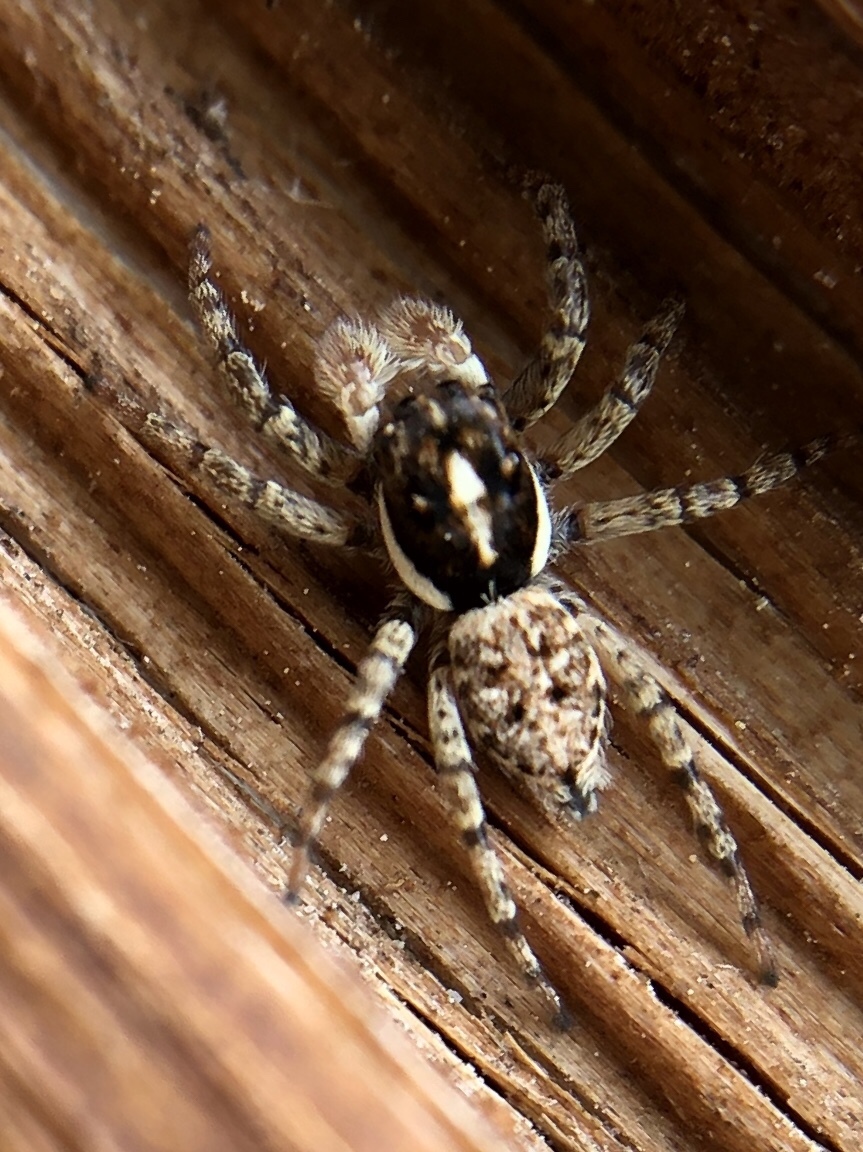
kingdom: Animalia
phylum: Arthropoda
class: Arachnida
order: Araneae
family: Salticidae
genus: Menemerus
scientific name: Menemerus semilimbatus
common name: Jumping spider
